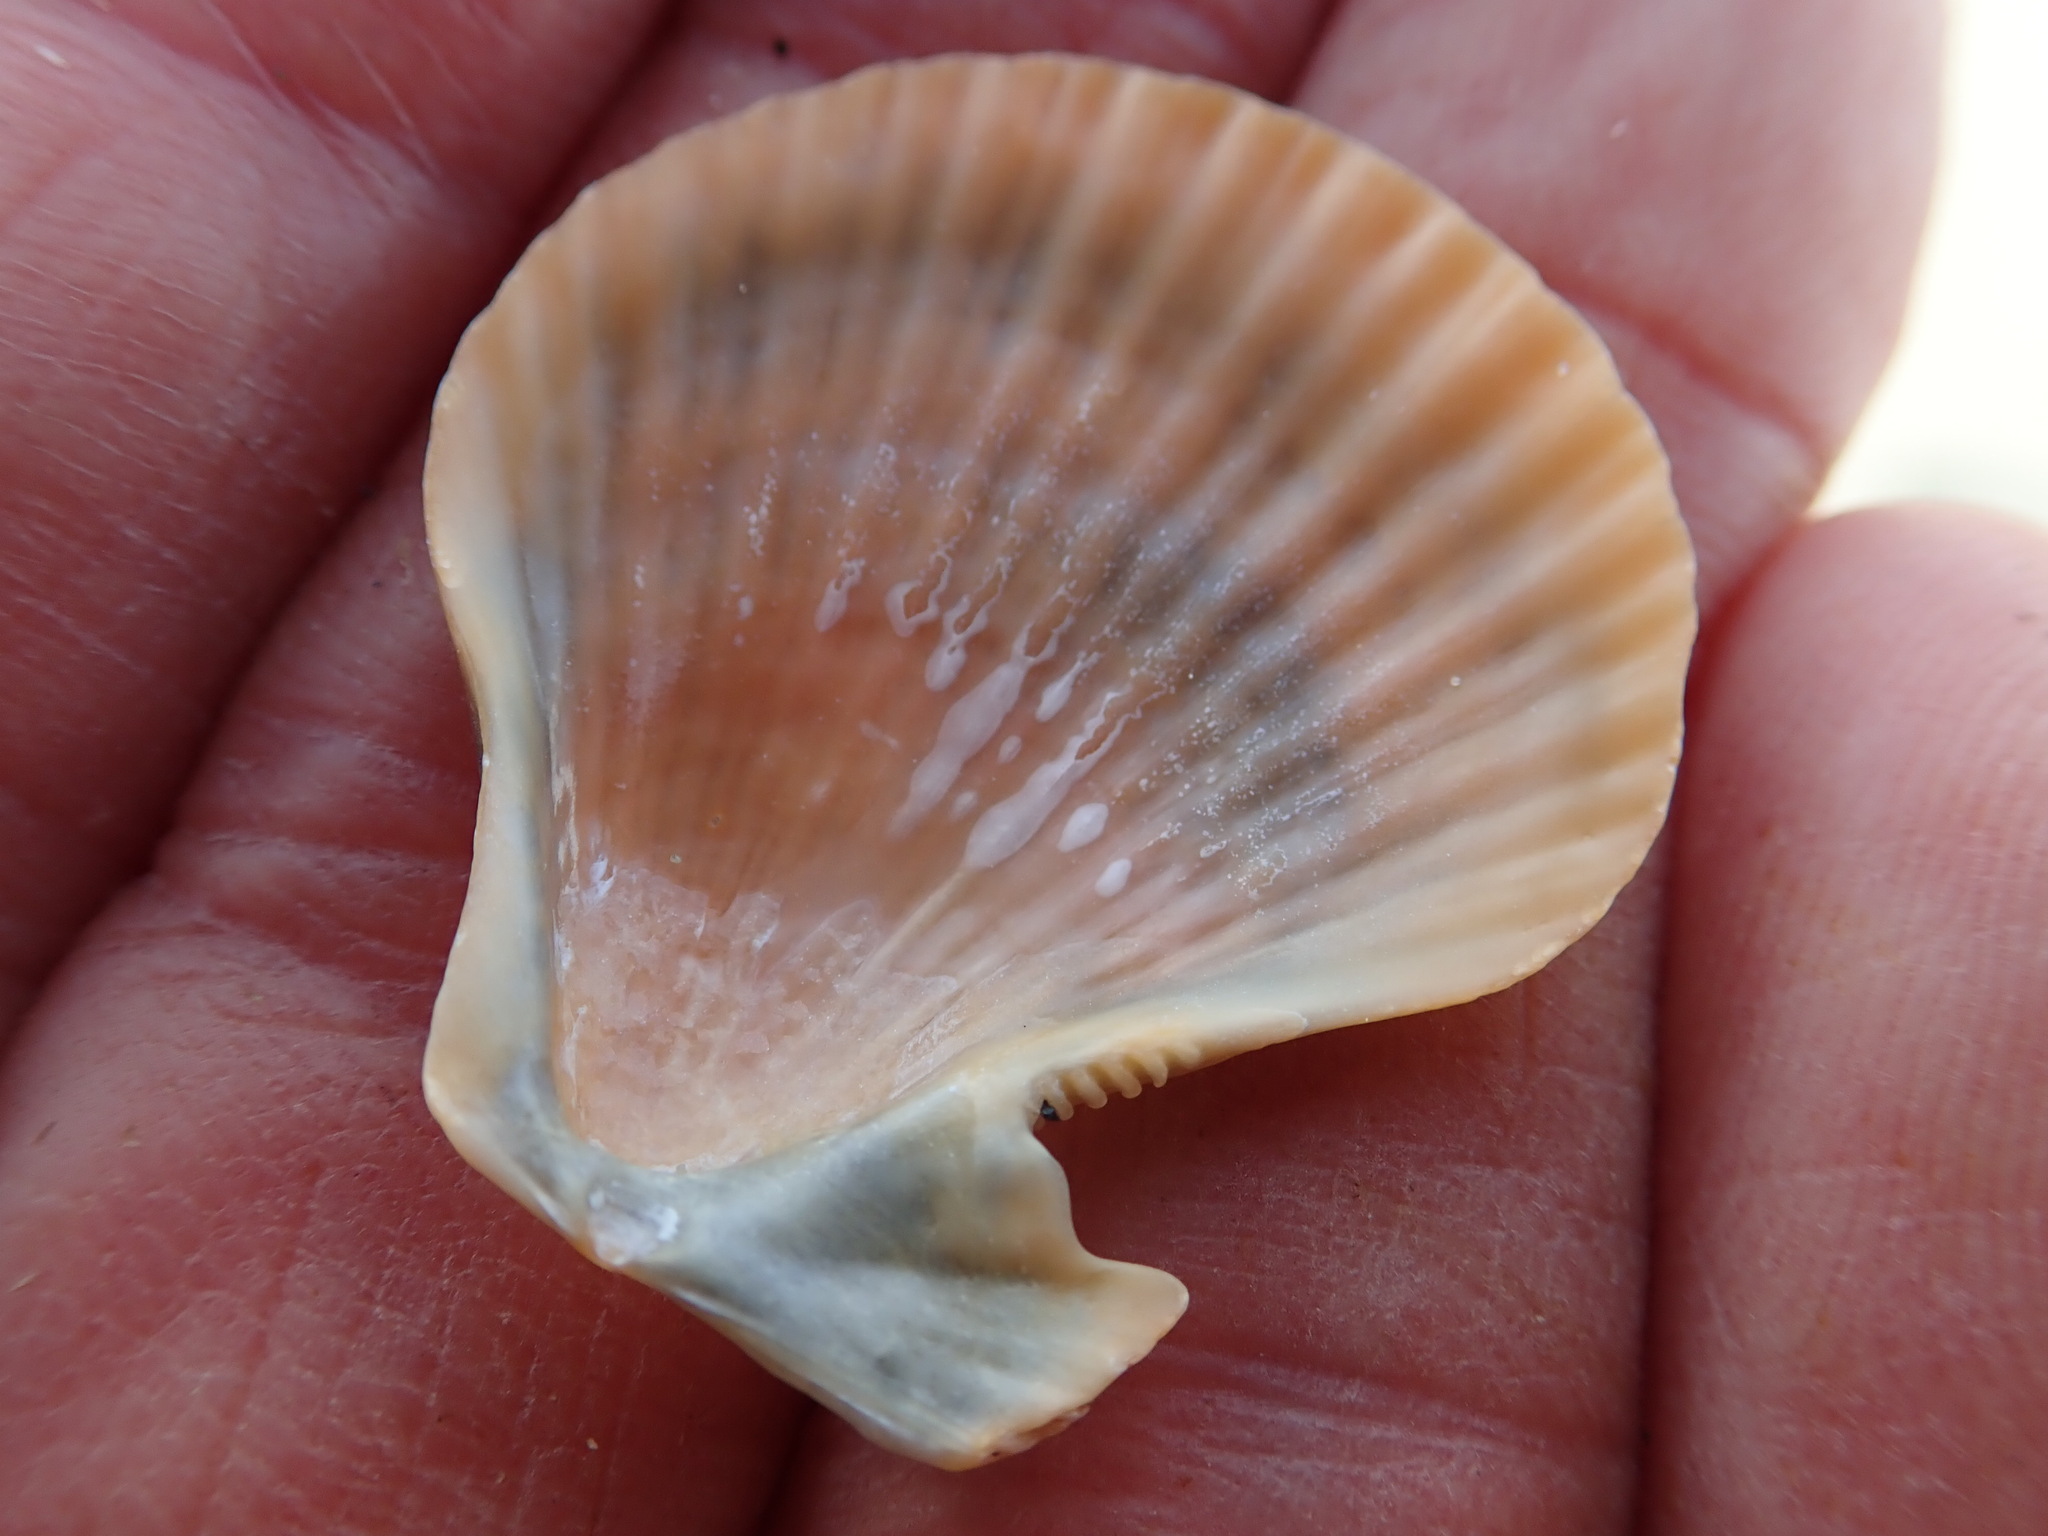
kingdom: Animalia
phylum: Mollusca
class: Bivalvia
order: Pectinida
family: Pectinidae
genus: Talochlamys
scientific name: Talochlamys zelandiae
